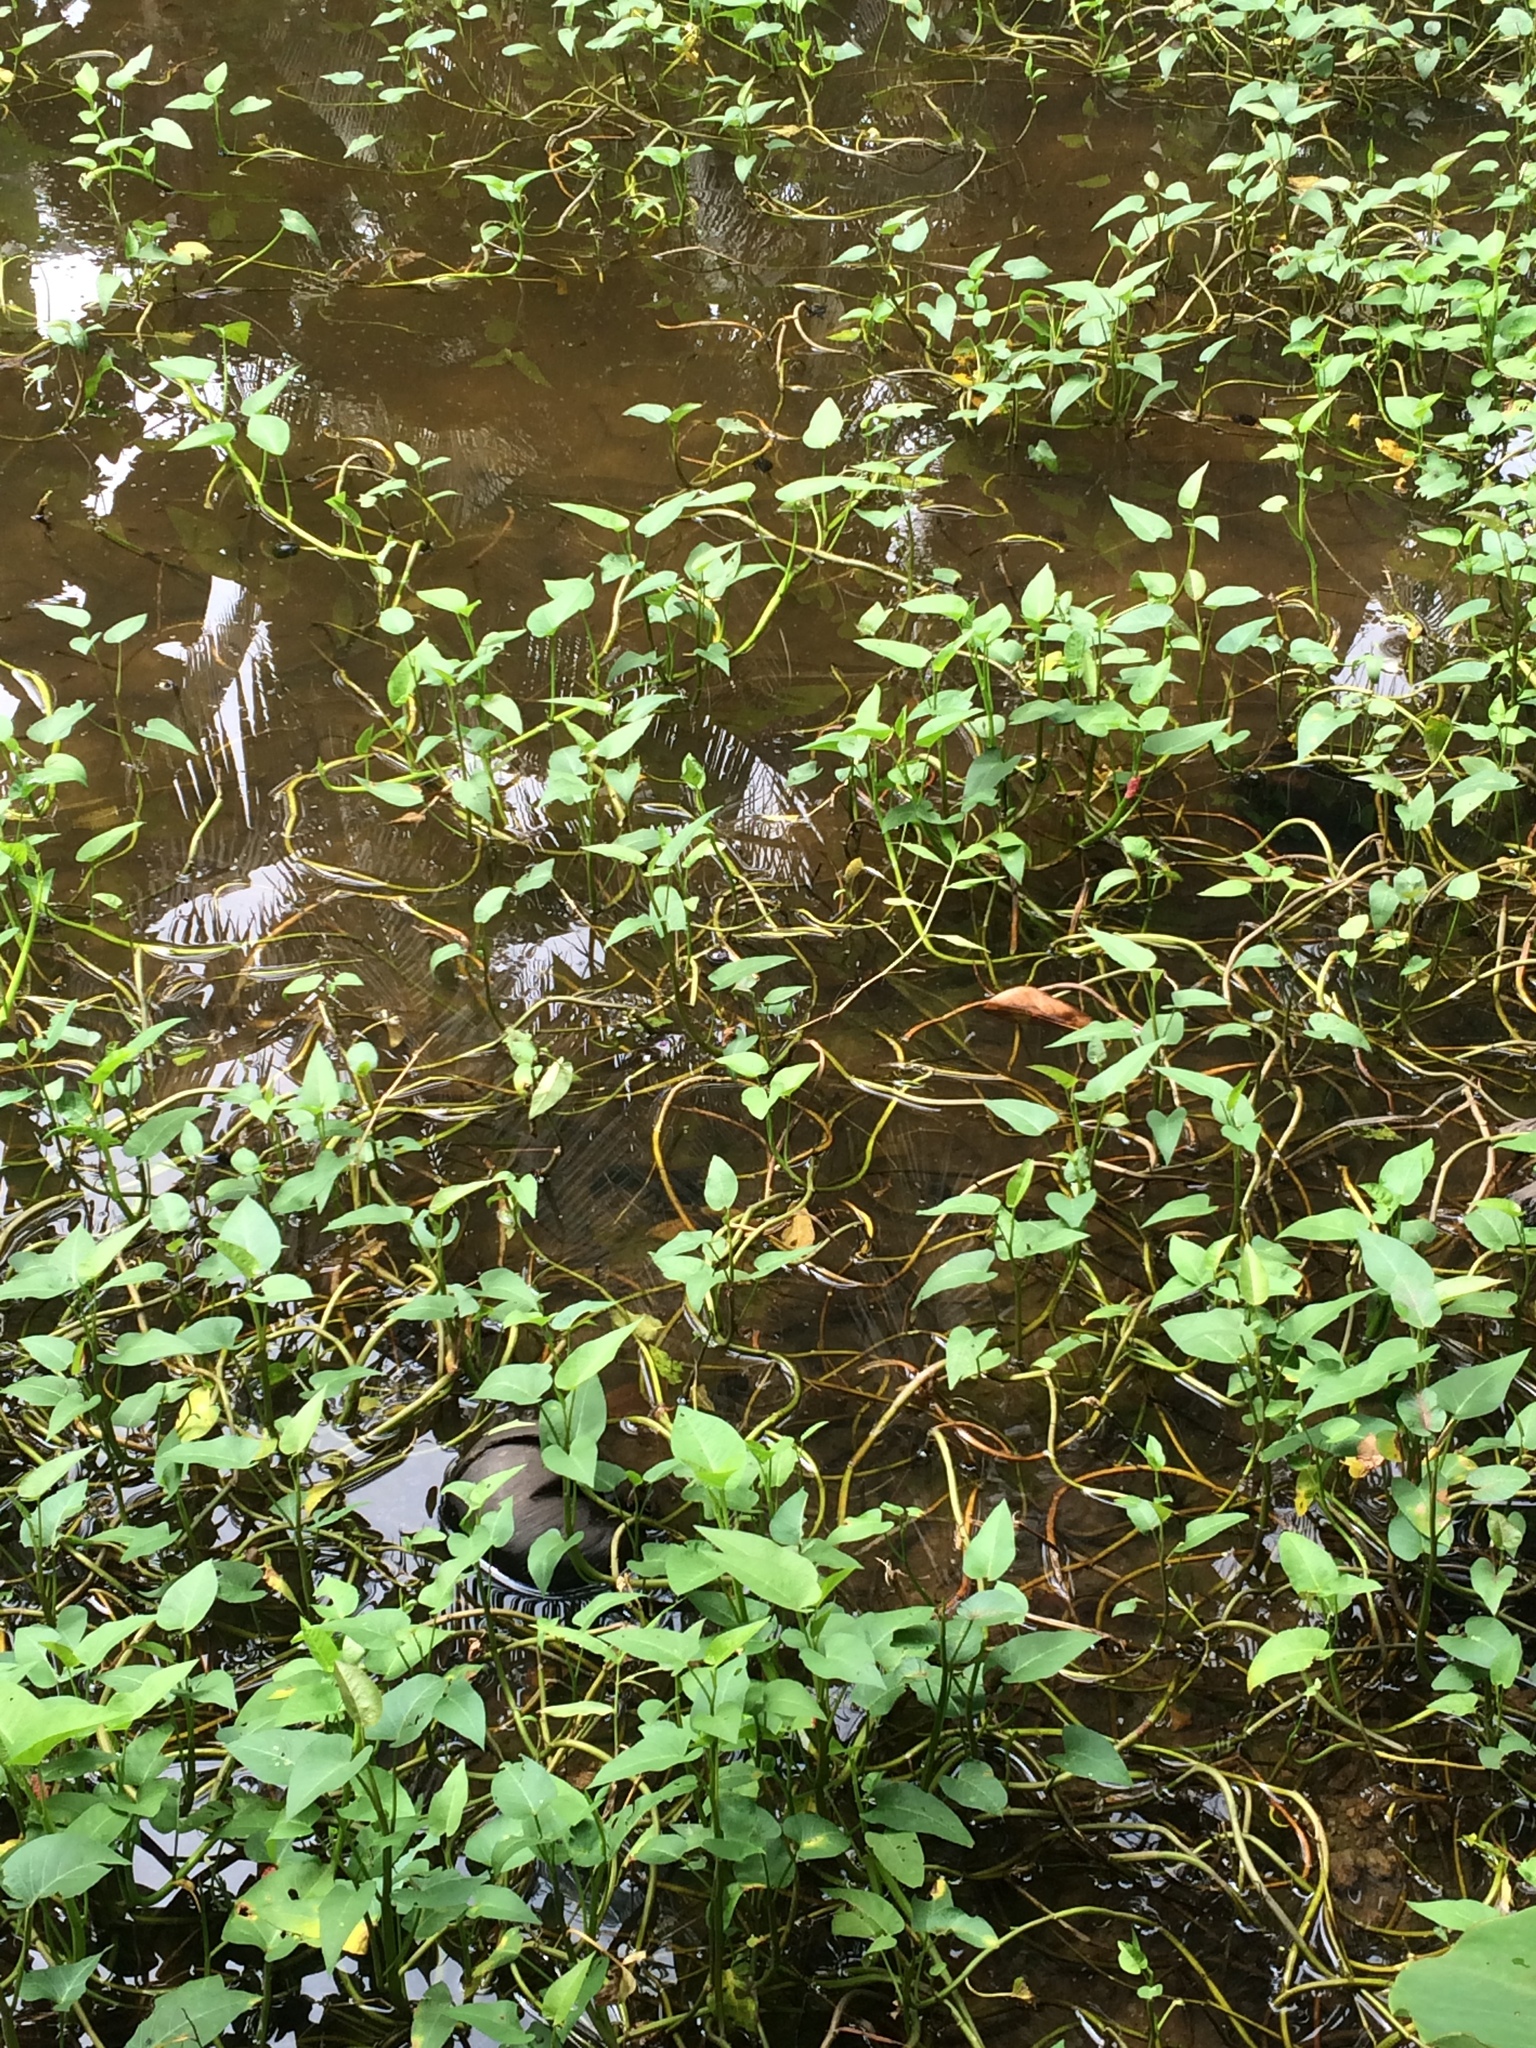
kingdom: Plantae
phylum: Tracheophyta
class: Magnoliopsida
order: Solanales
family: Convolvulaceae
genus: Ipomoea
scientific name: Ipomoea aquatica
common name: Swamp morning-glory
